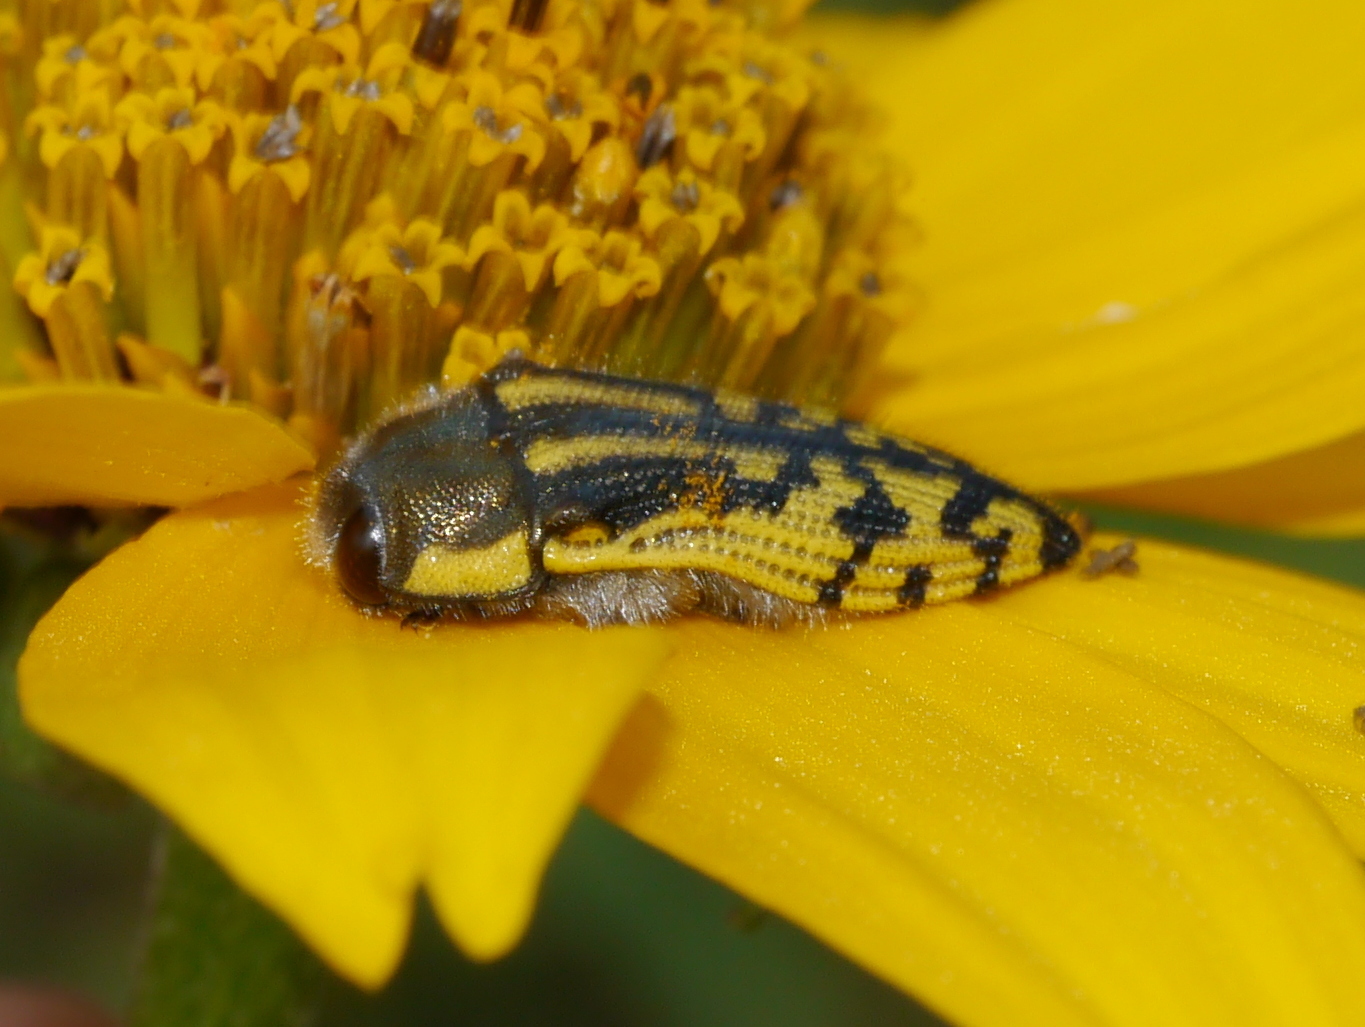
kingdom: Animalia
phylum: Arthropoda
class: Insecta
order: Coleoptera
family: Buprestidae
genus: Acmaeodera
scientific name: Acmaeodera amplicollis
